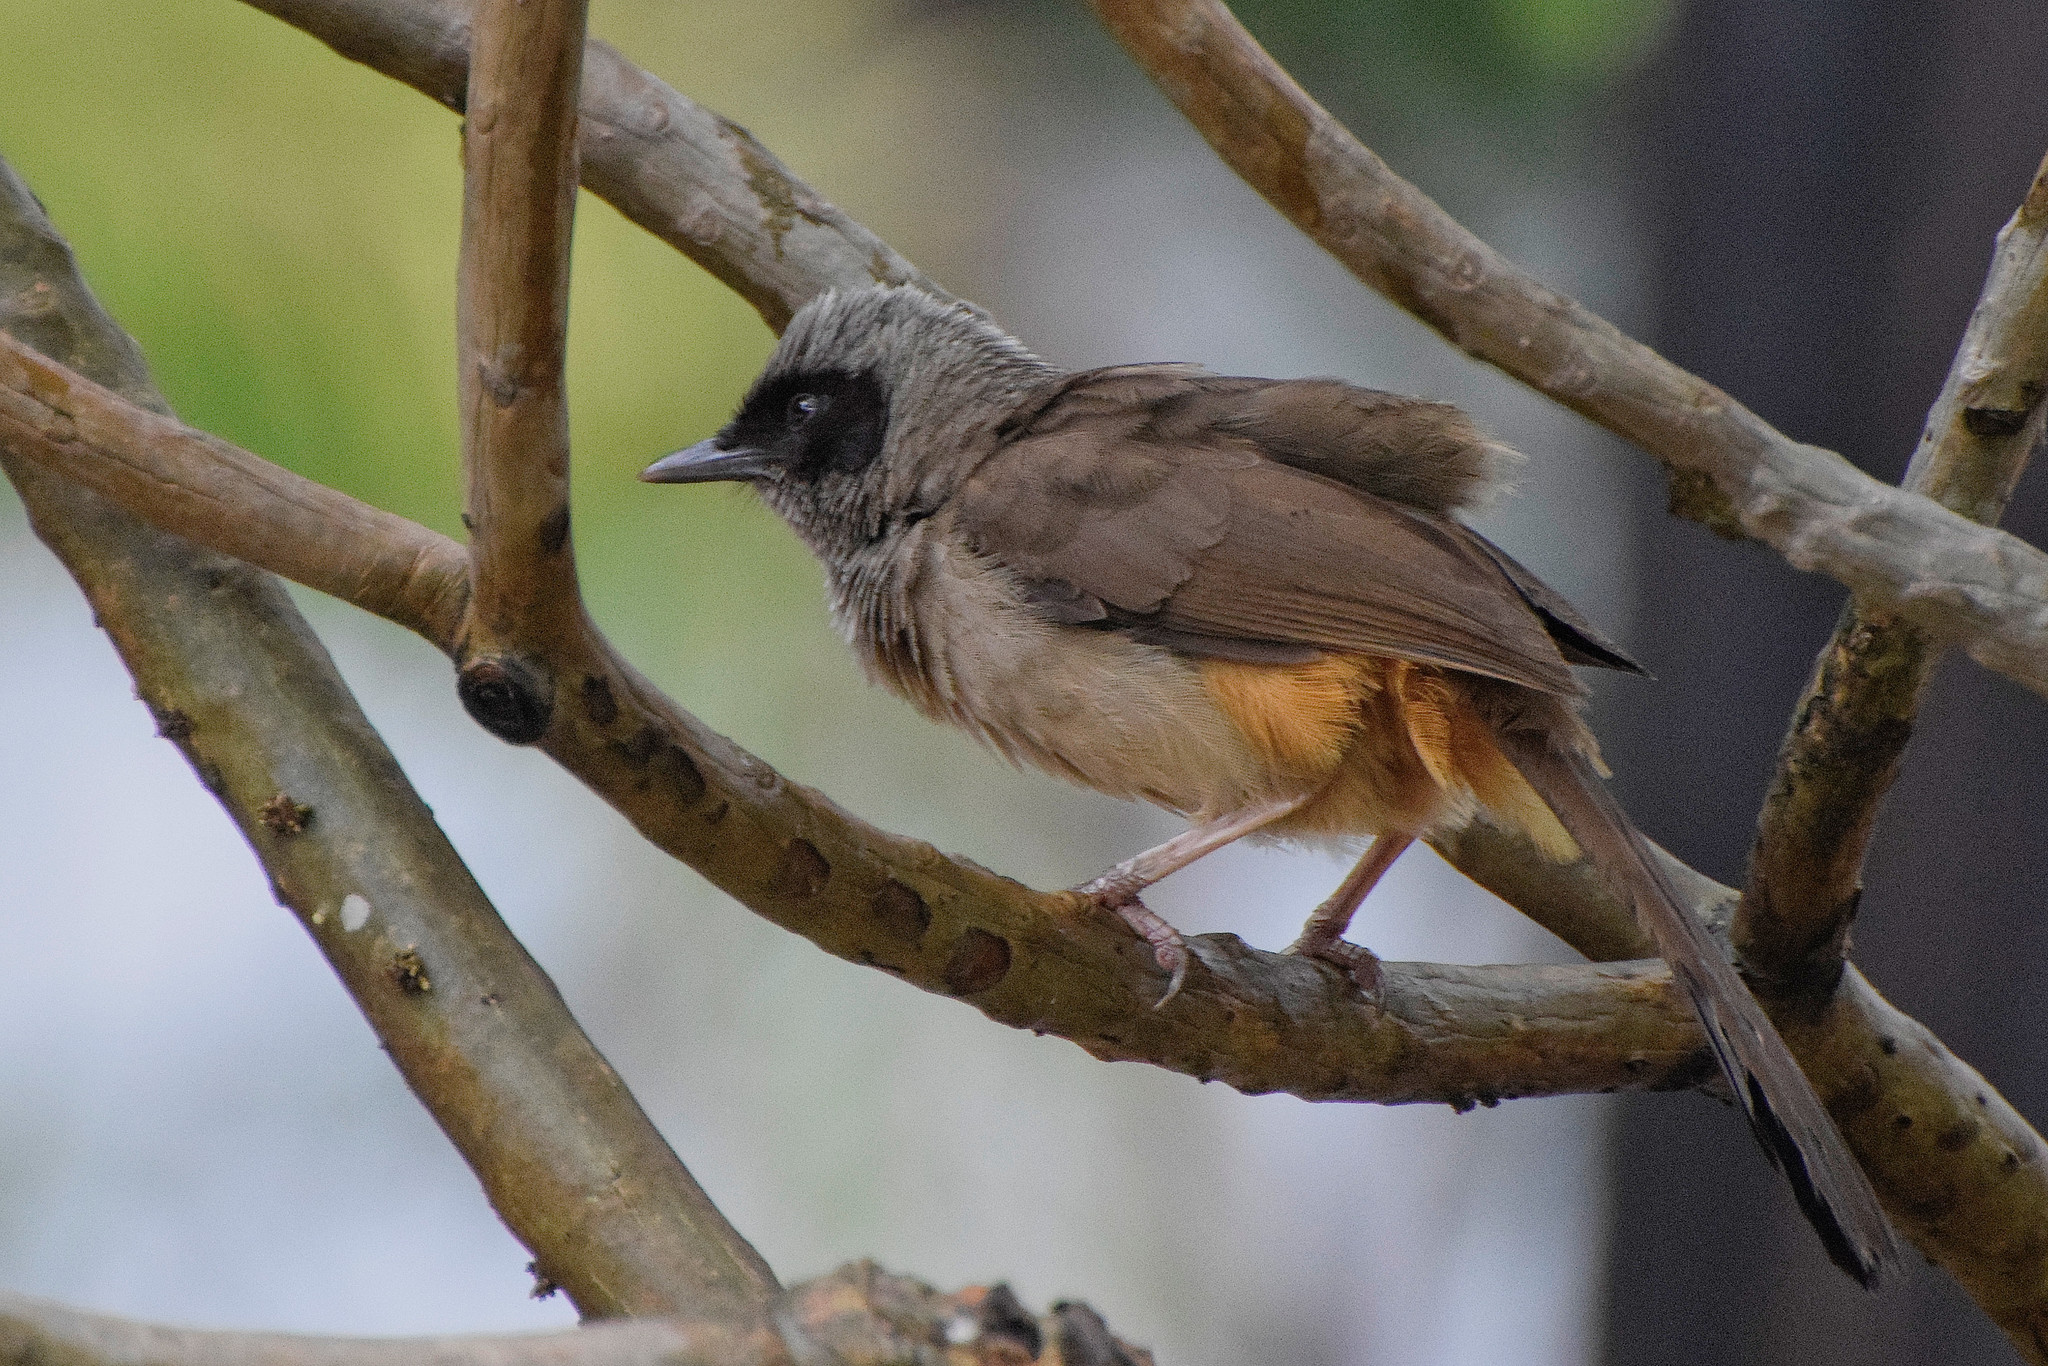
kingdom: Animalia
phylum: Chordata
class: Aves
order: Passeriformes
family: Leiothrichidae
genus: Garrulax
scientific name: Garrulax perspicillatus
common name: Masked laughingthrush
